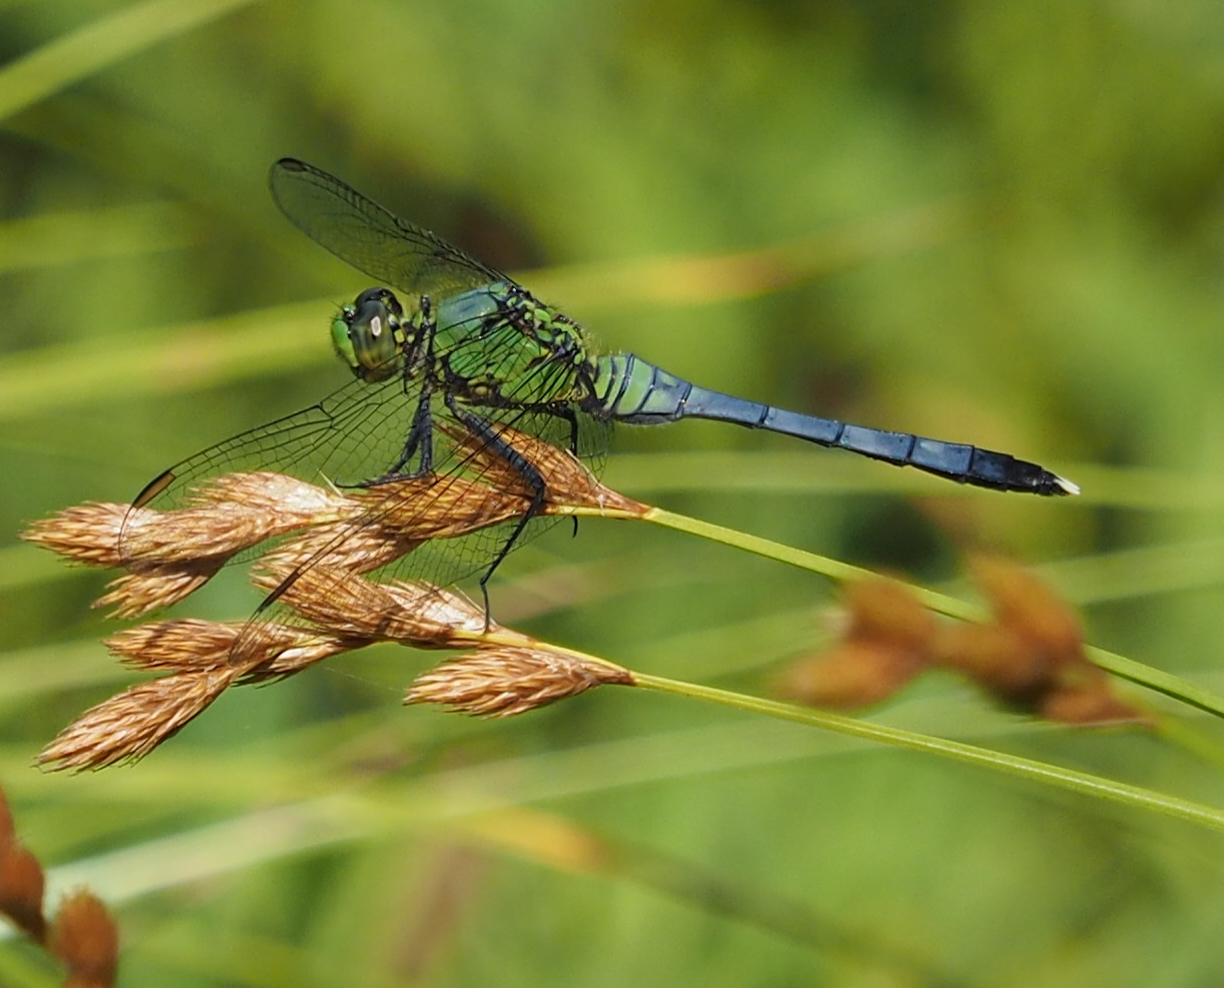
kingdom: Animalia
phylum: Arthropoda
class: Insecta
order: Odonata
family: Libellulidae
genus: Erythemis
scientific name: Erythemis simplicicollis
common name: Eastern pondhawk
